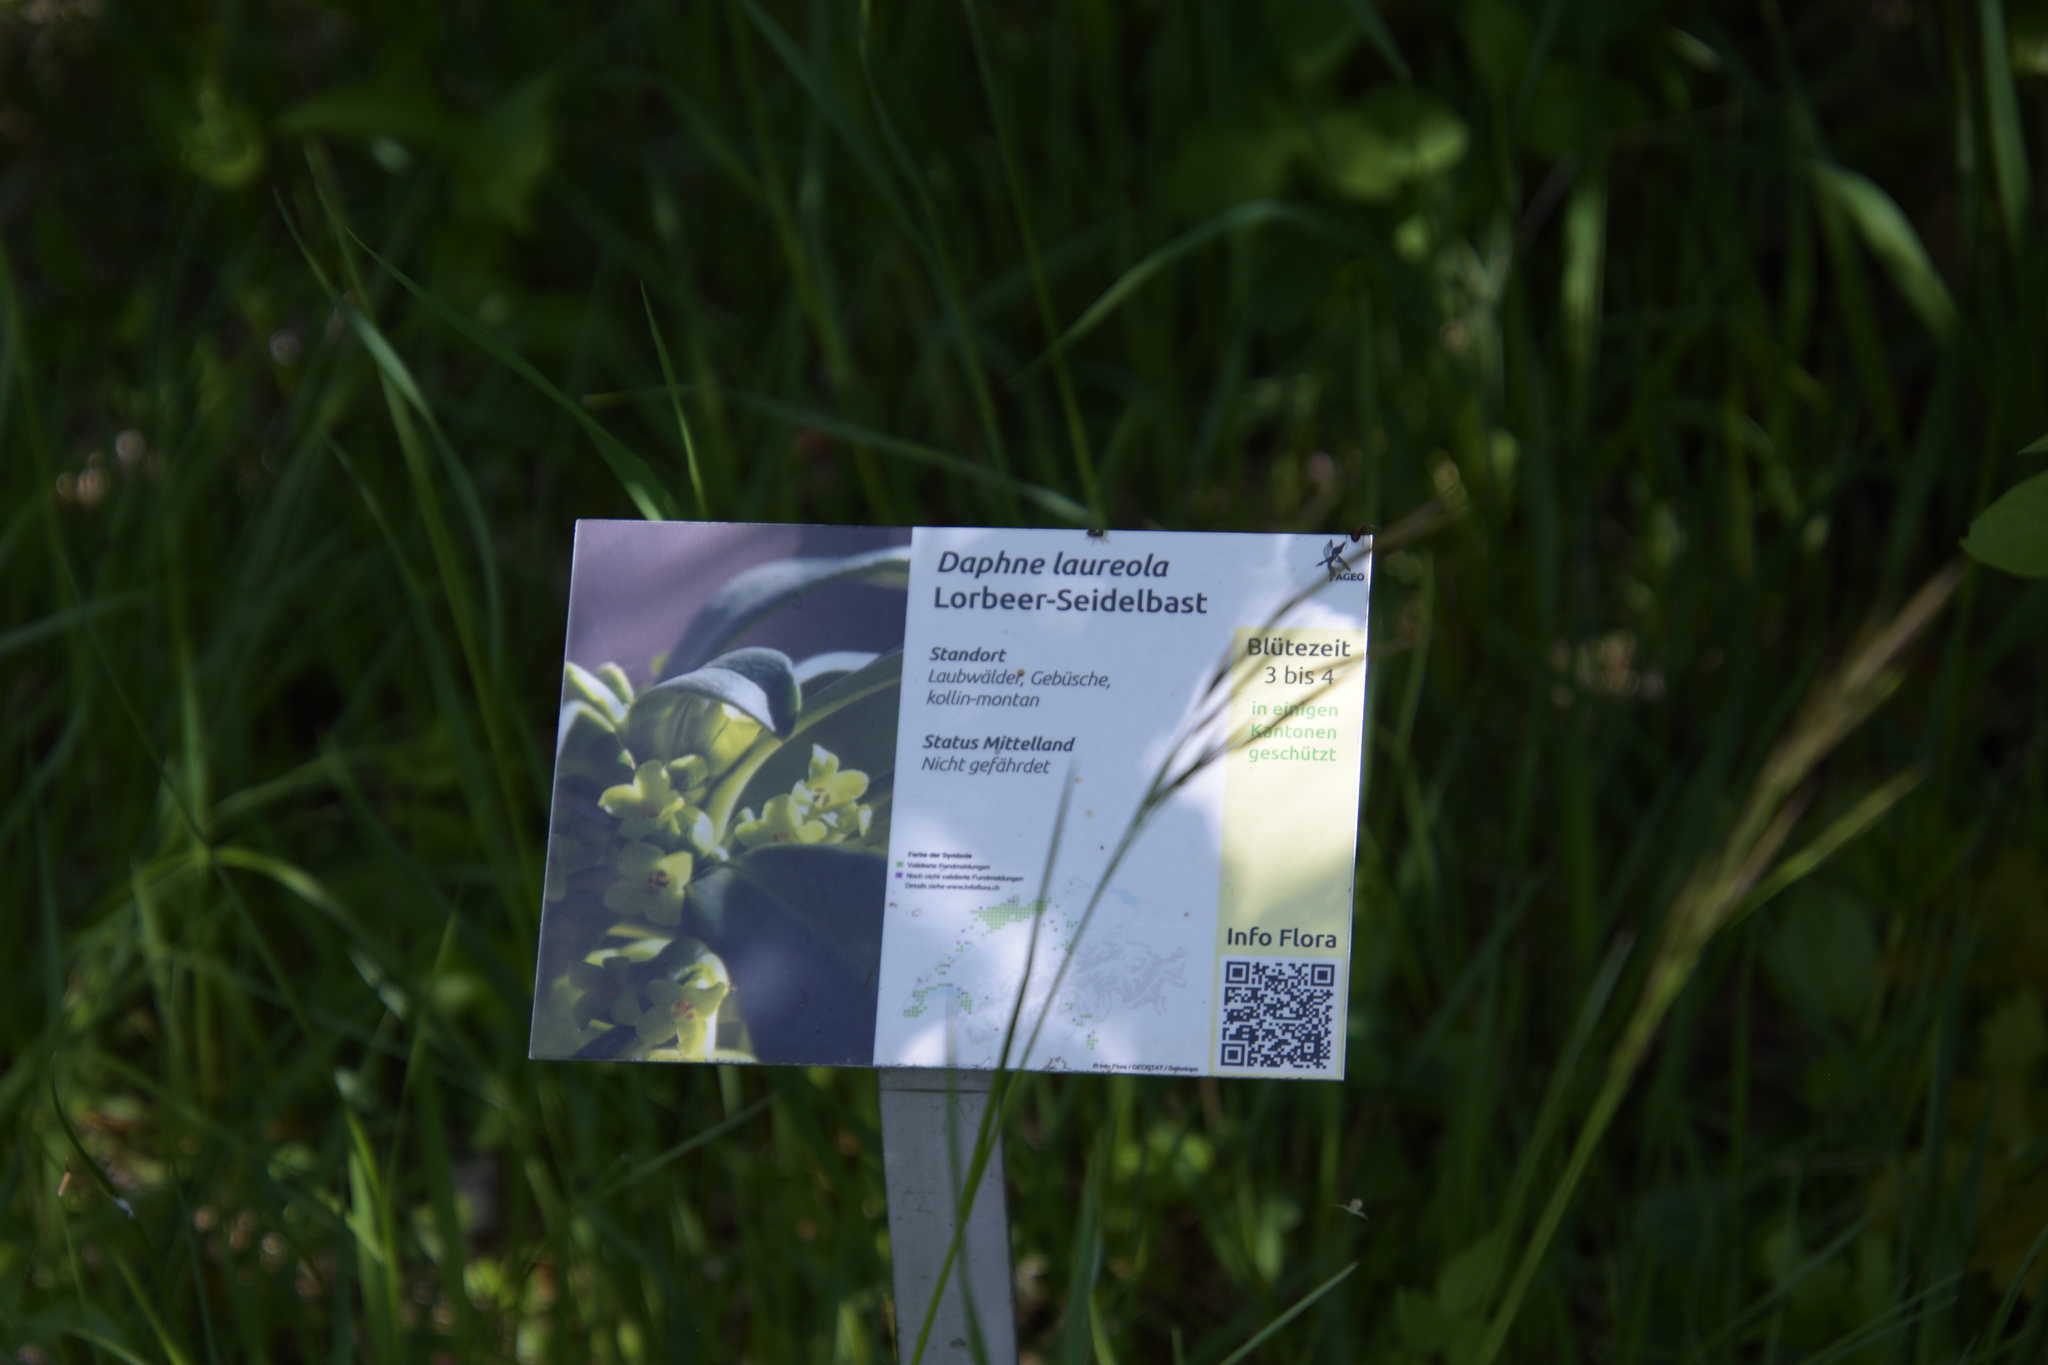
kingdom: Plantae
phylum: Tracheophyta
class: Magnoliopsida
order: Malvales
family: Thymelaeaceae
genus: Daphne
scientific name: Daphne laureola
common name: Spurge-laurel
